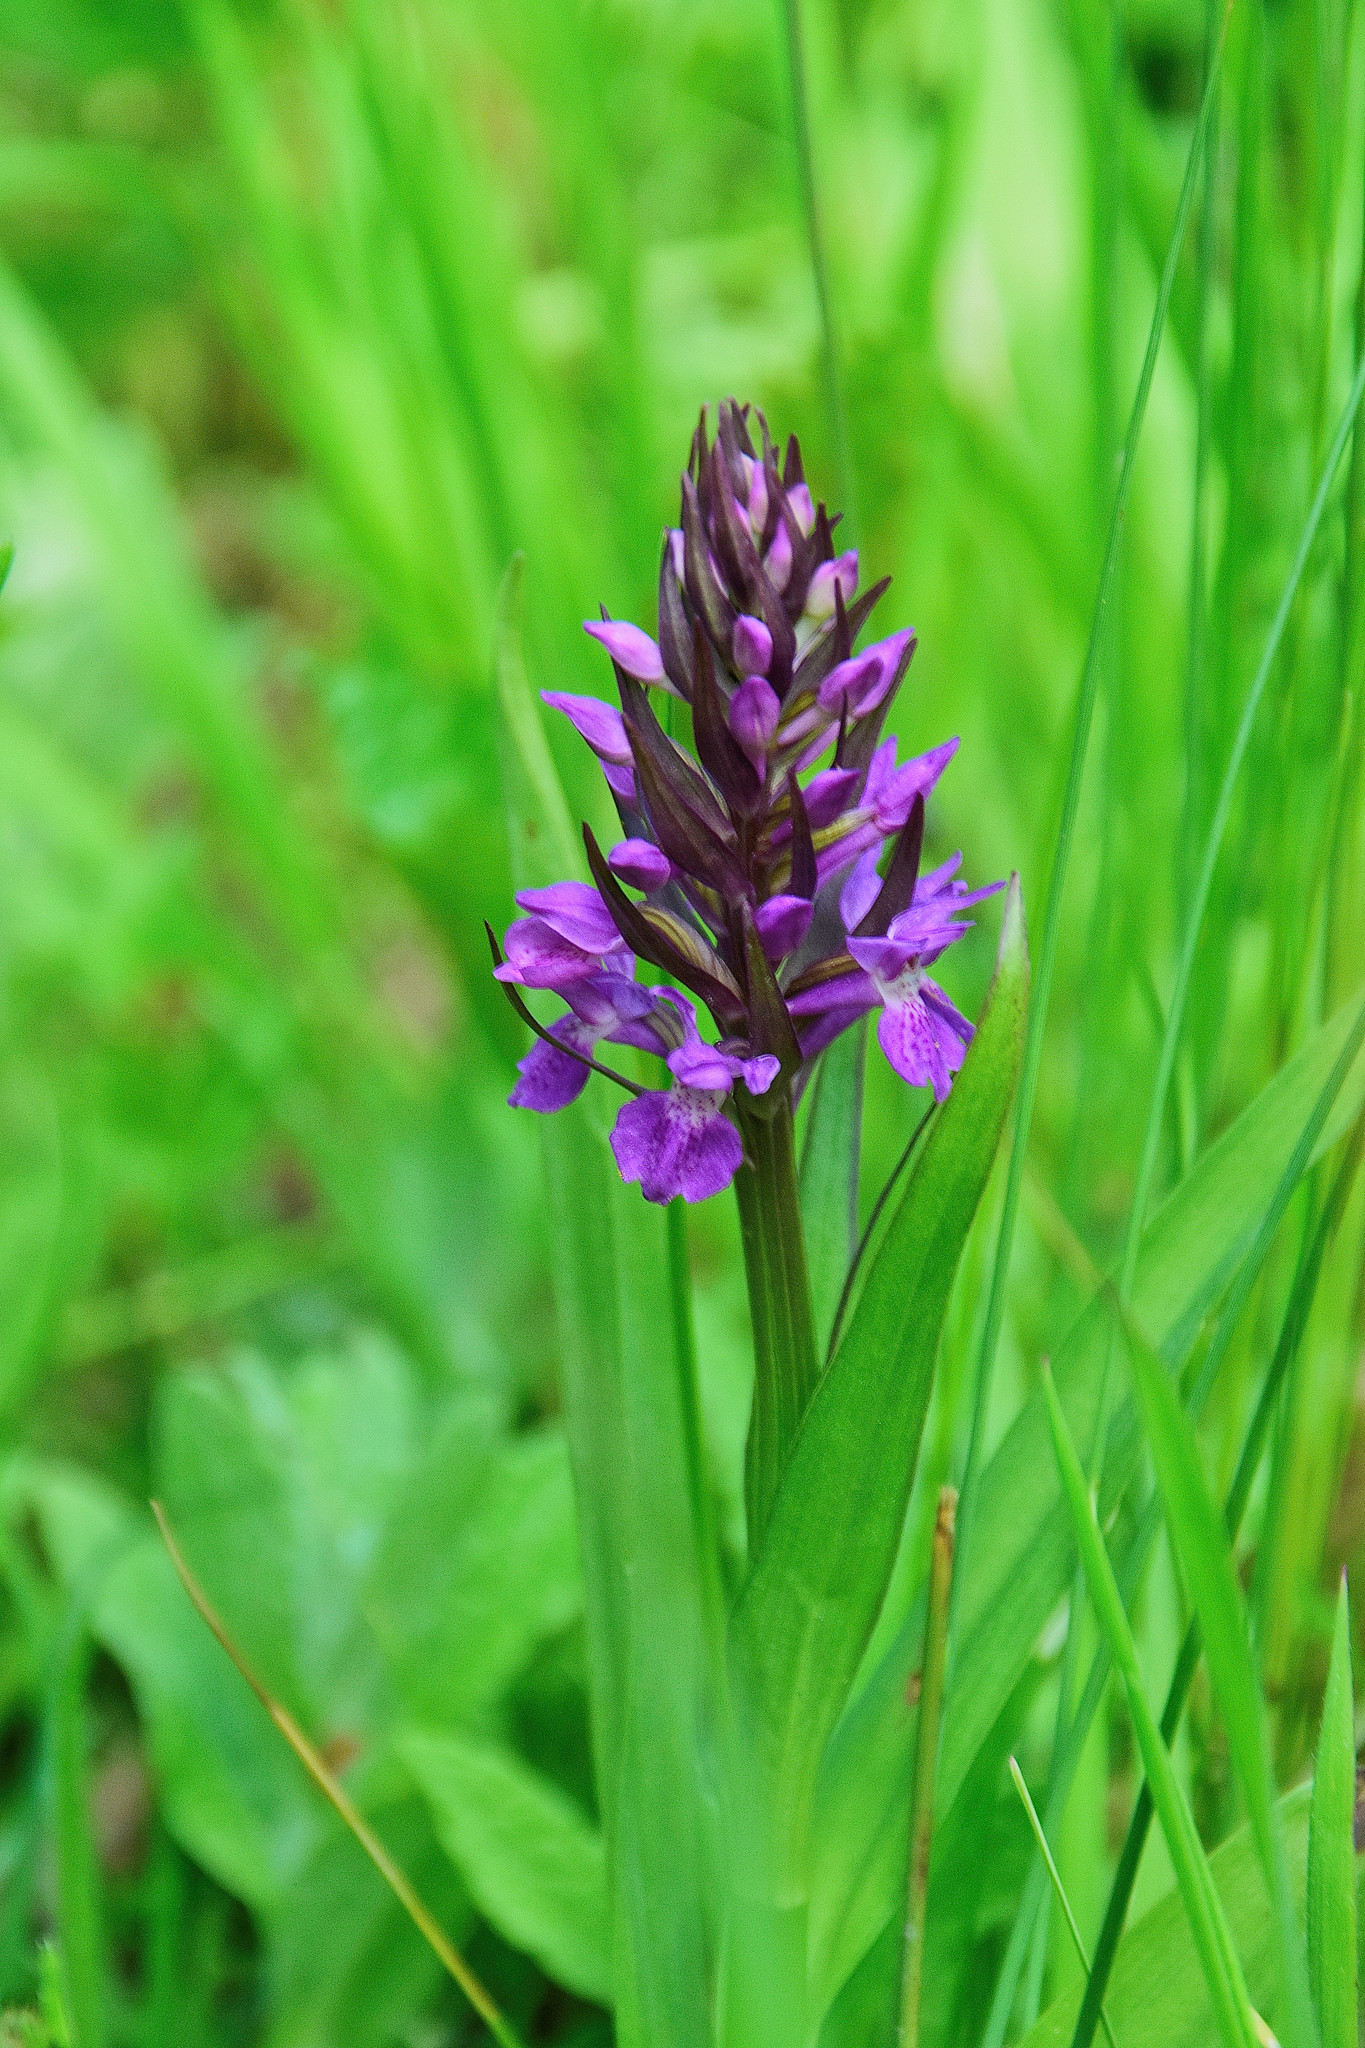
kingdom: Plantae
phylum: Tracheophyta
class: Liliopsida
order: Asparagales
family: Orchidaceae
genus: Dactylorhiza
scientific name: Dactylorhiza majalis
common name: Marsh orchid
